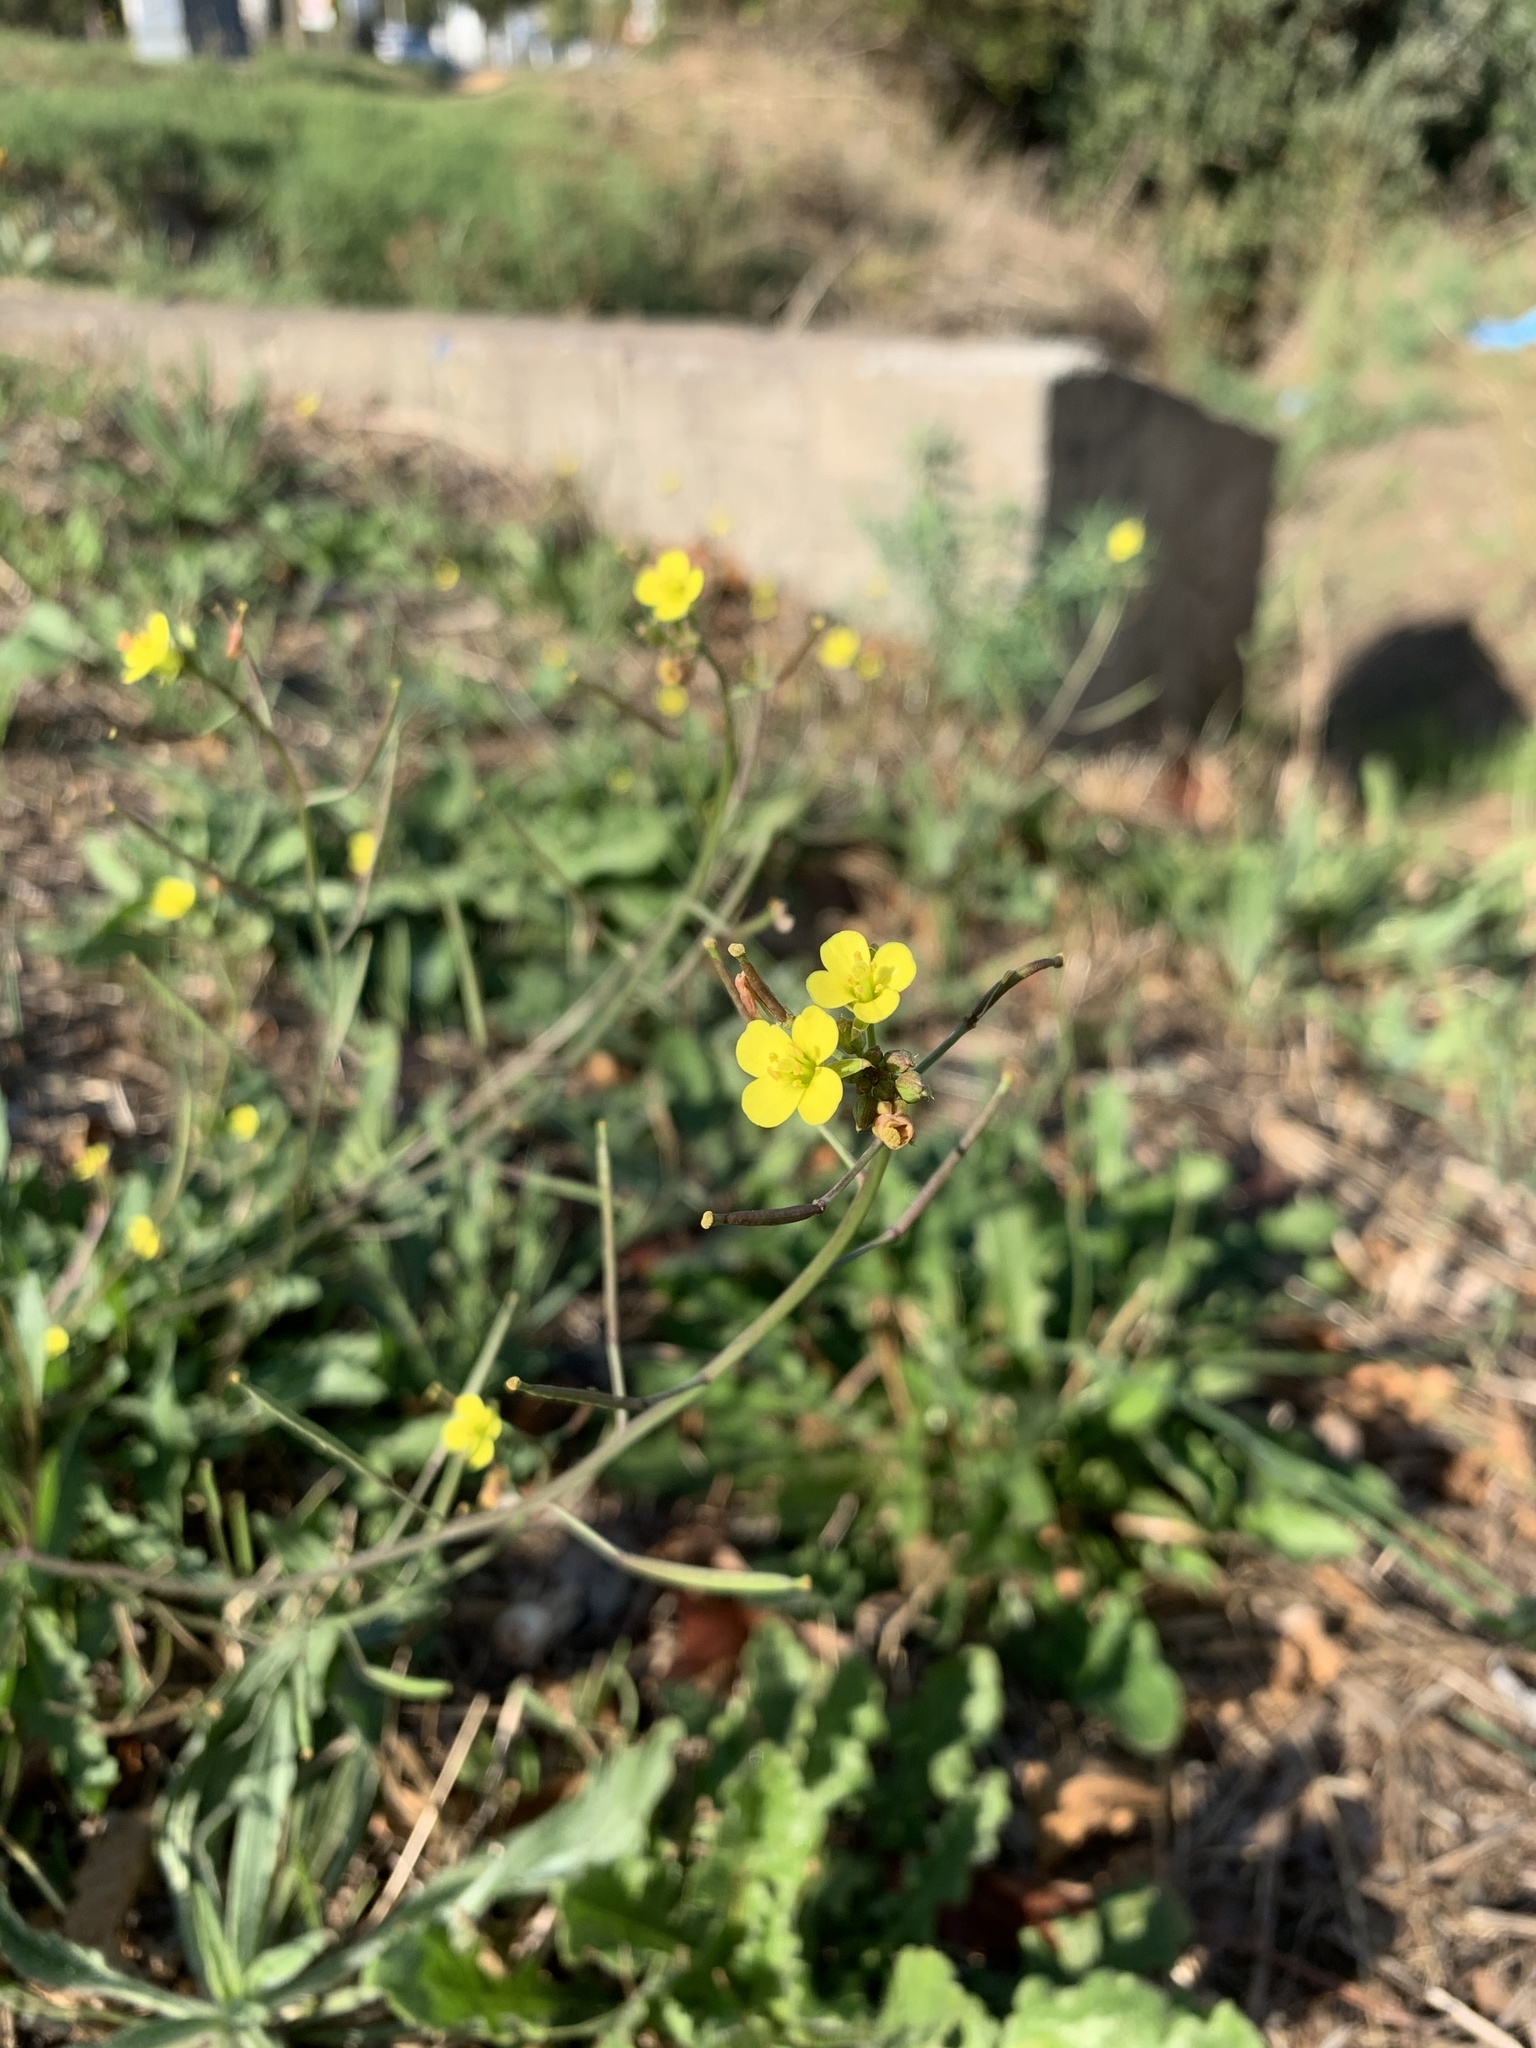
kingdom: Plantae
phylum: Tracheophyta
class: Magnoliopsida
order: Brassicales
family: Brassicaceae
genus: Diplotaxis
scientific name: Diplotaxis muralis
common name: Annual wall-rocket
